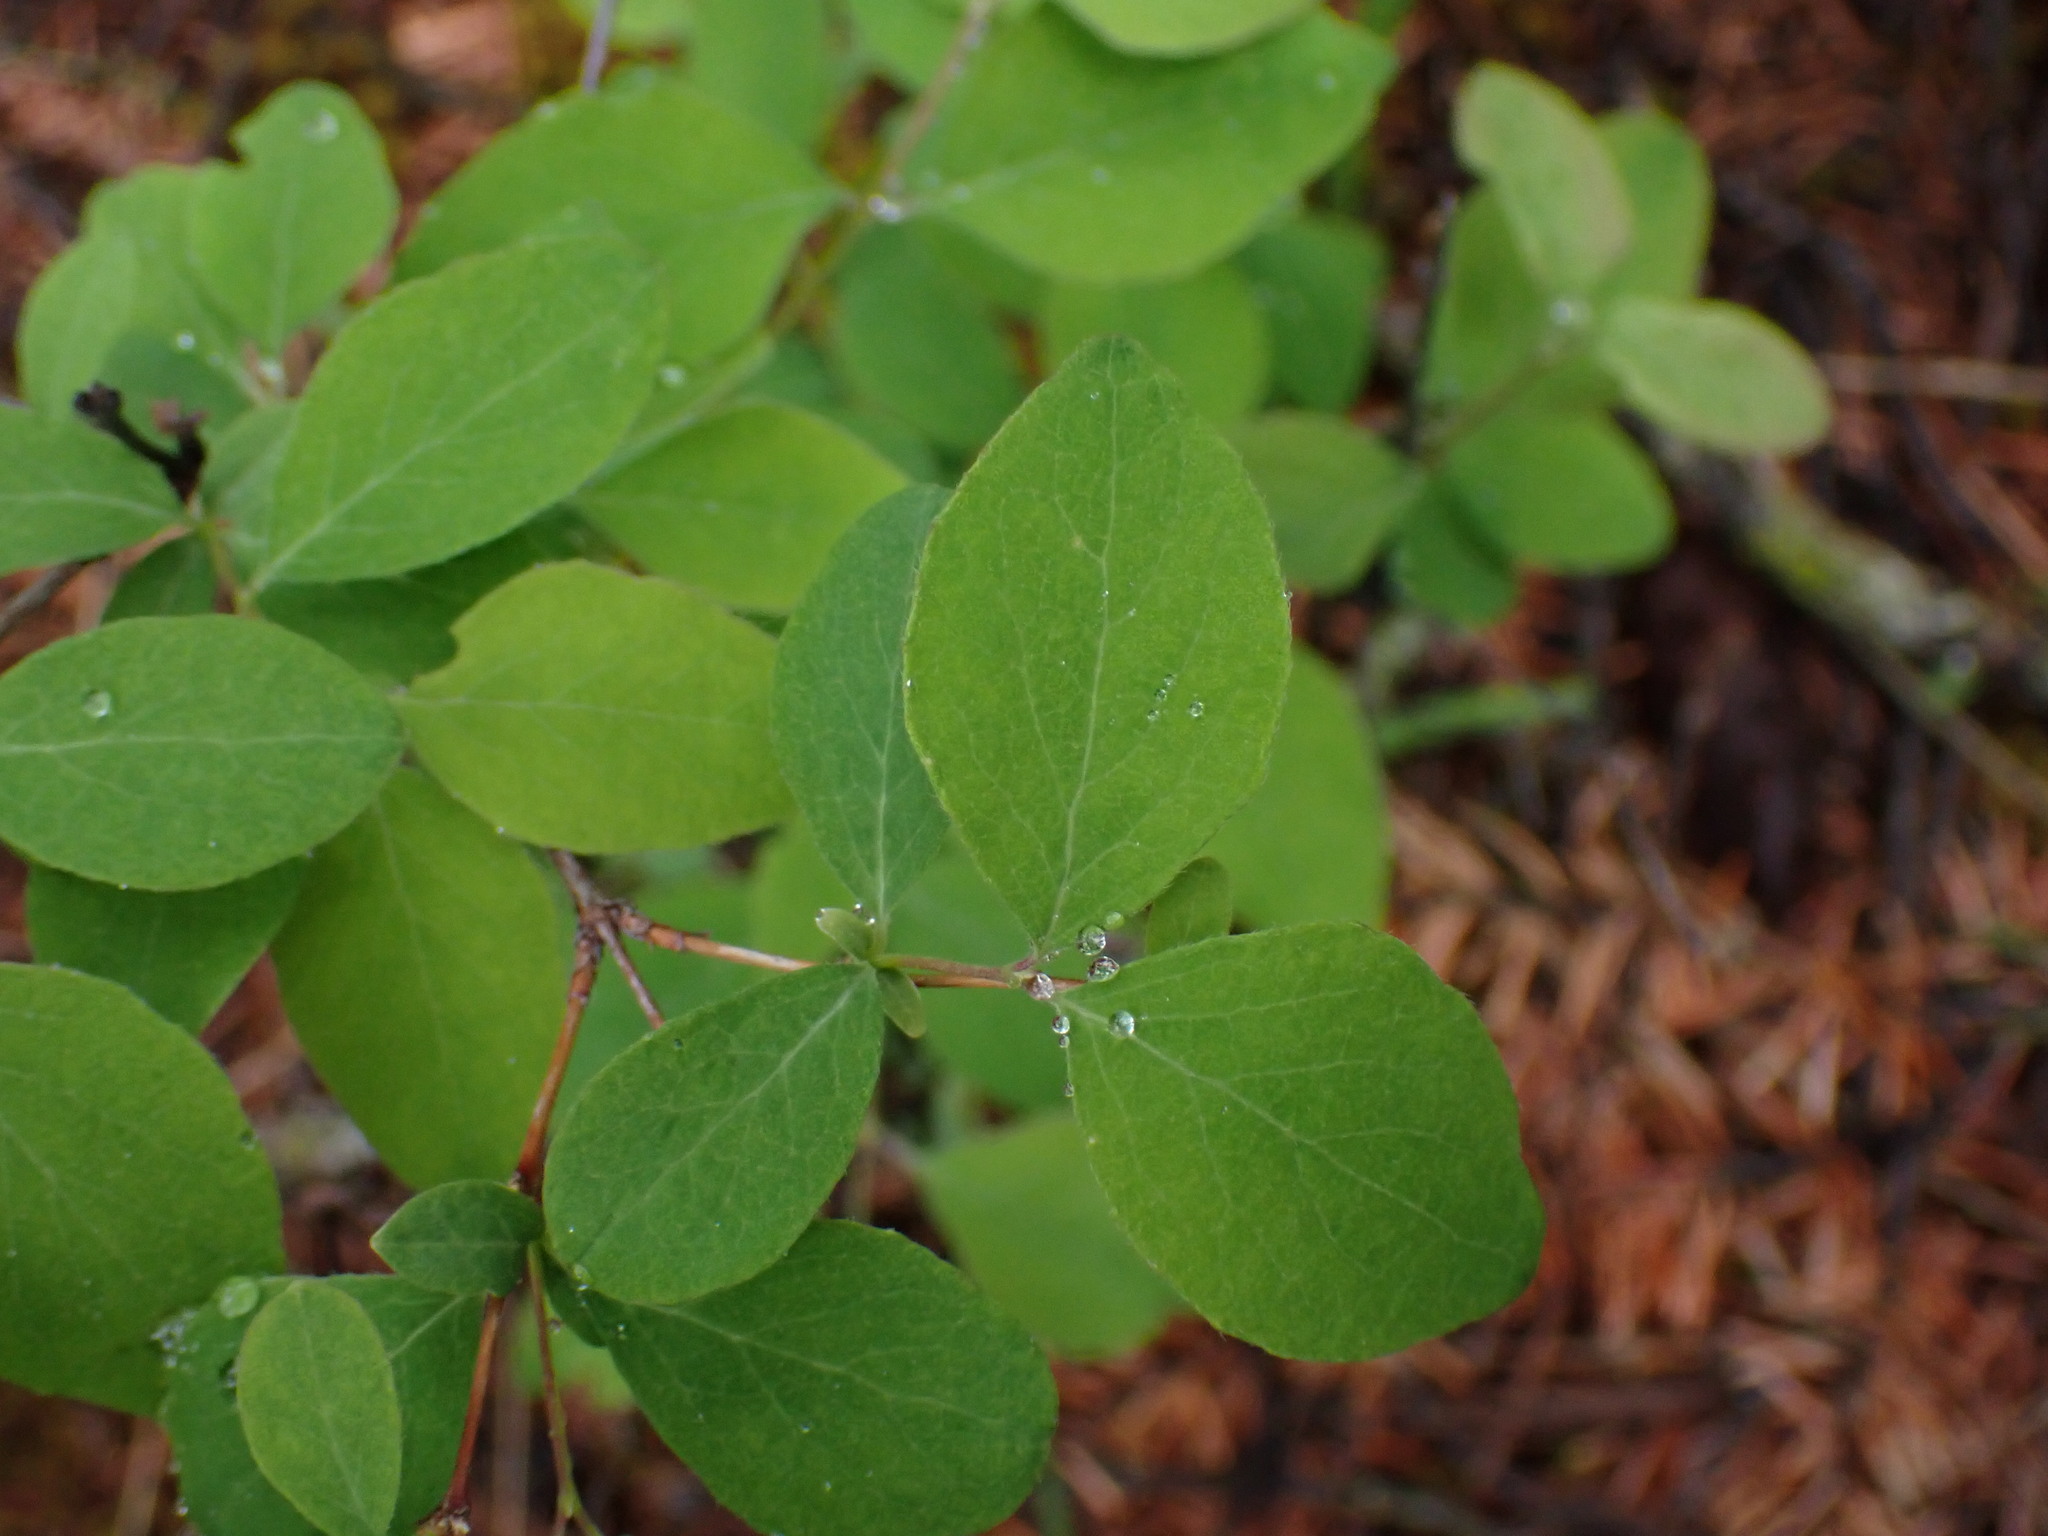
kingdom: Plantae
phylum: Tracheophyta
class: Magnoliopsida
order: Dipsacales
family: Caprifoliaceae
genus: Symphoricarpos
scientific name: Symphoricarpos albus
